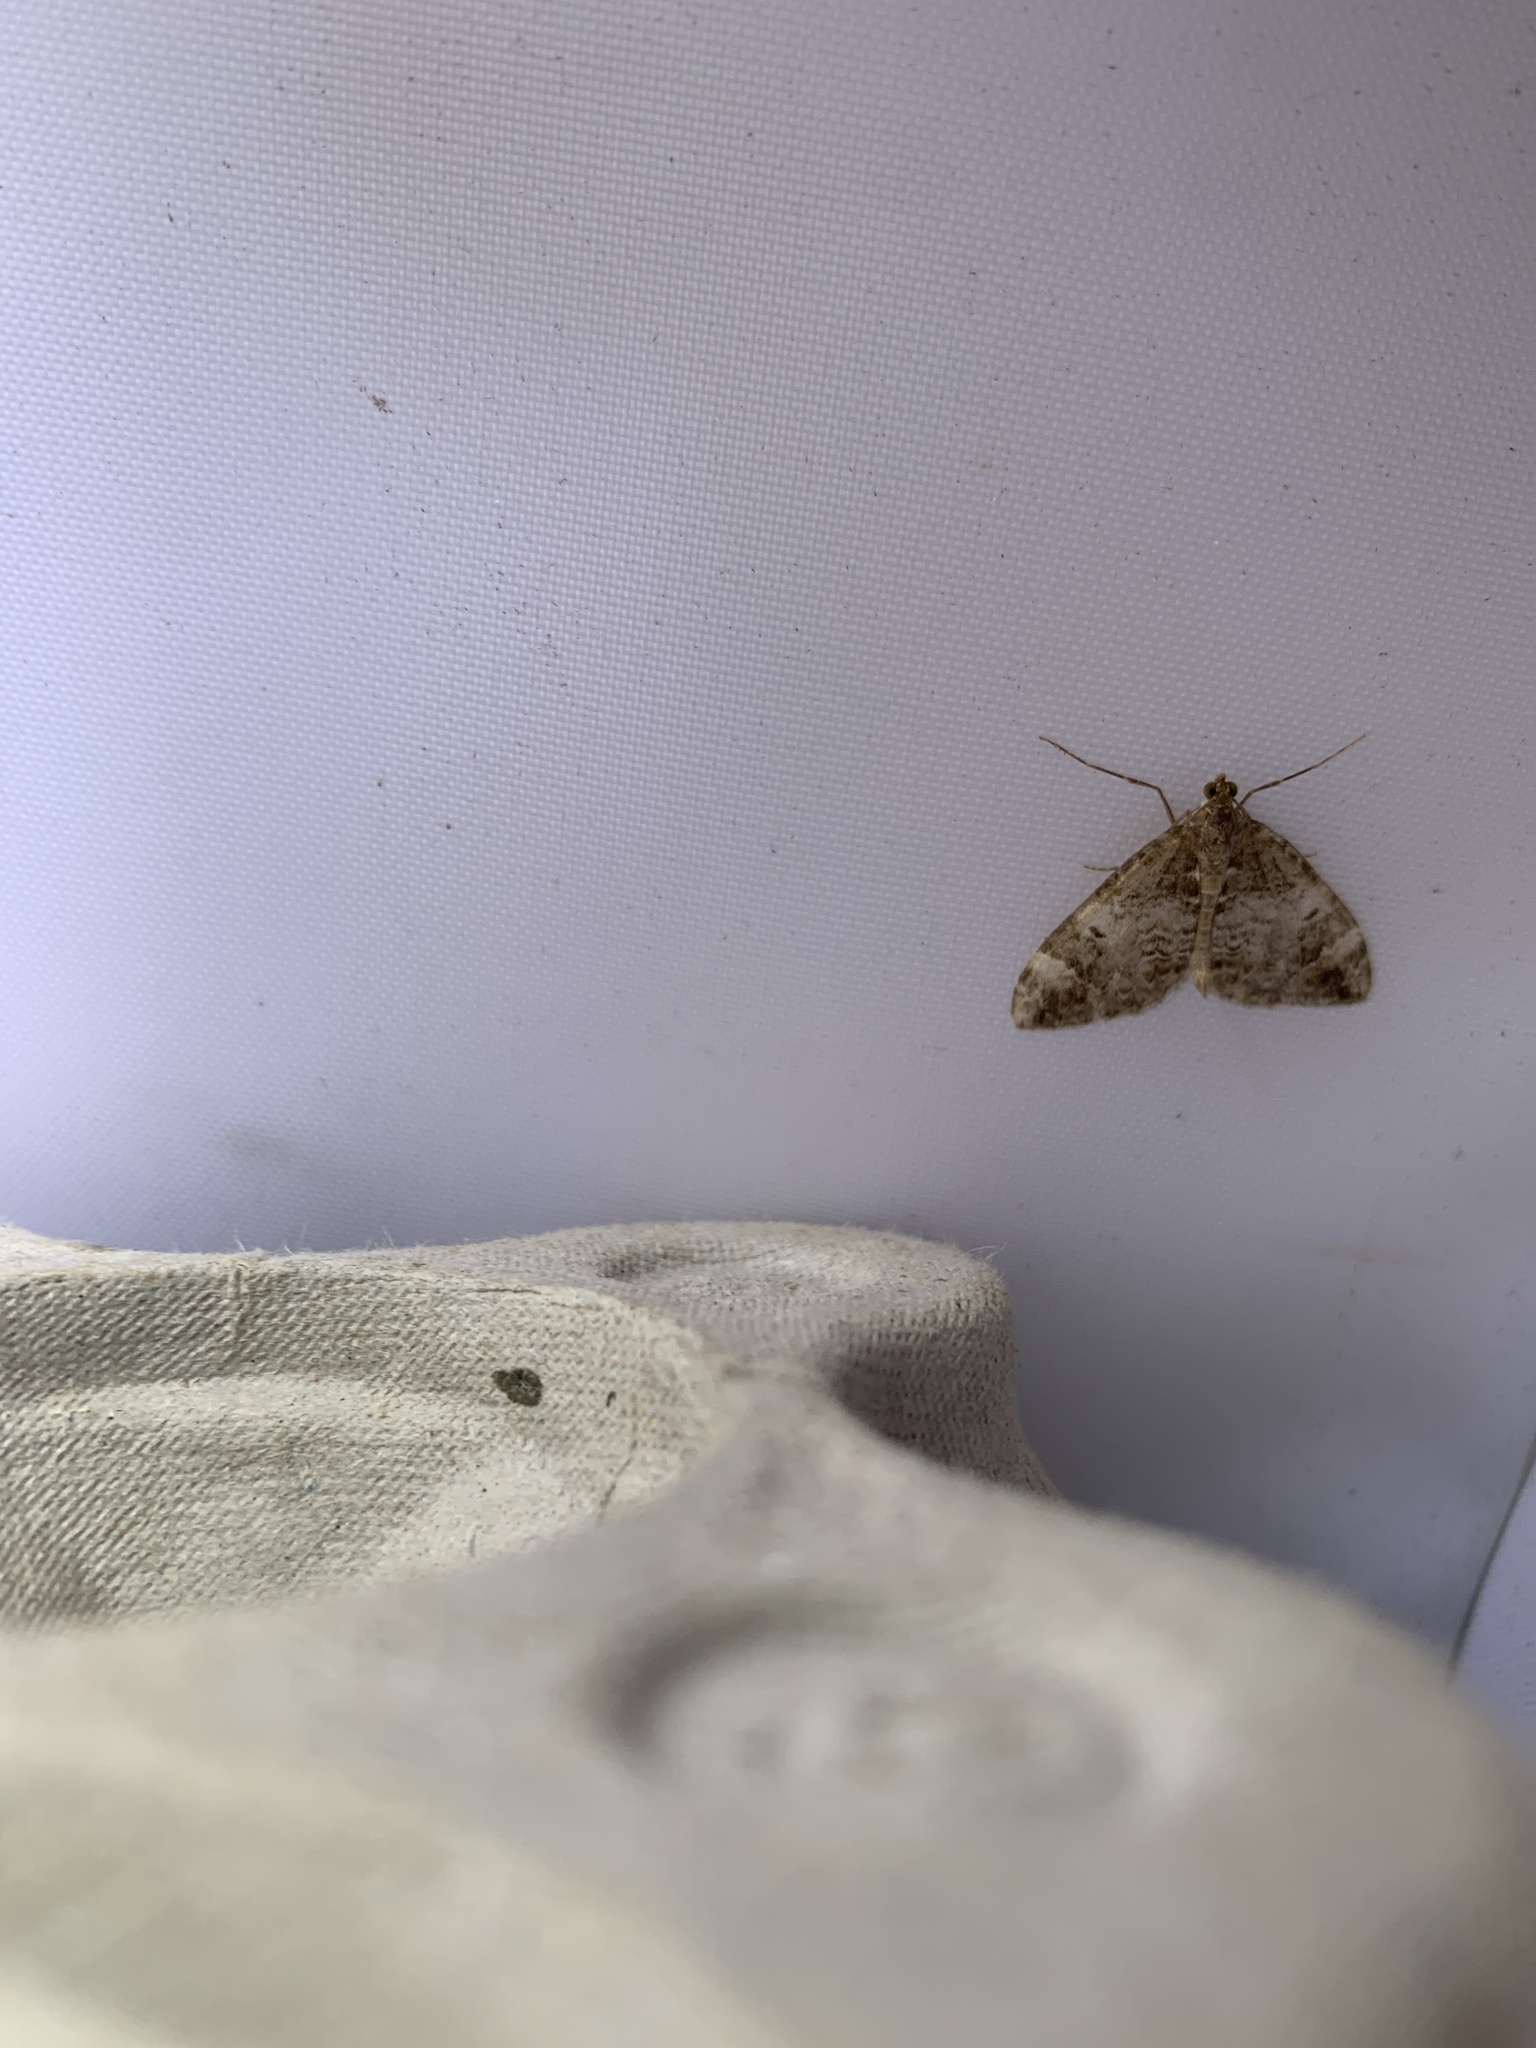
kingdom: Animalia
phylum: Arthropoda
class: Insecta
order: Lepidoptera
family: Geometridae
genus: Dysstroma
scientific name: Dysstroma truncata
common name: Common marbled carpet
